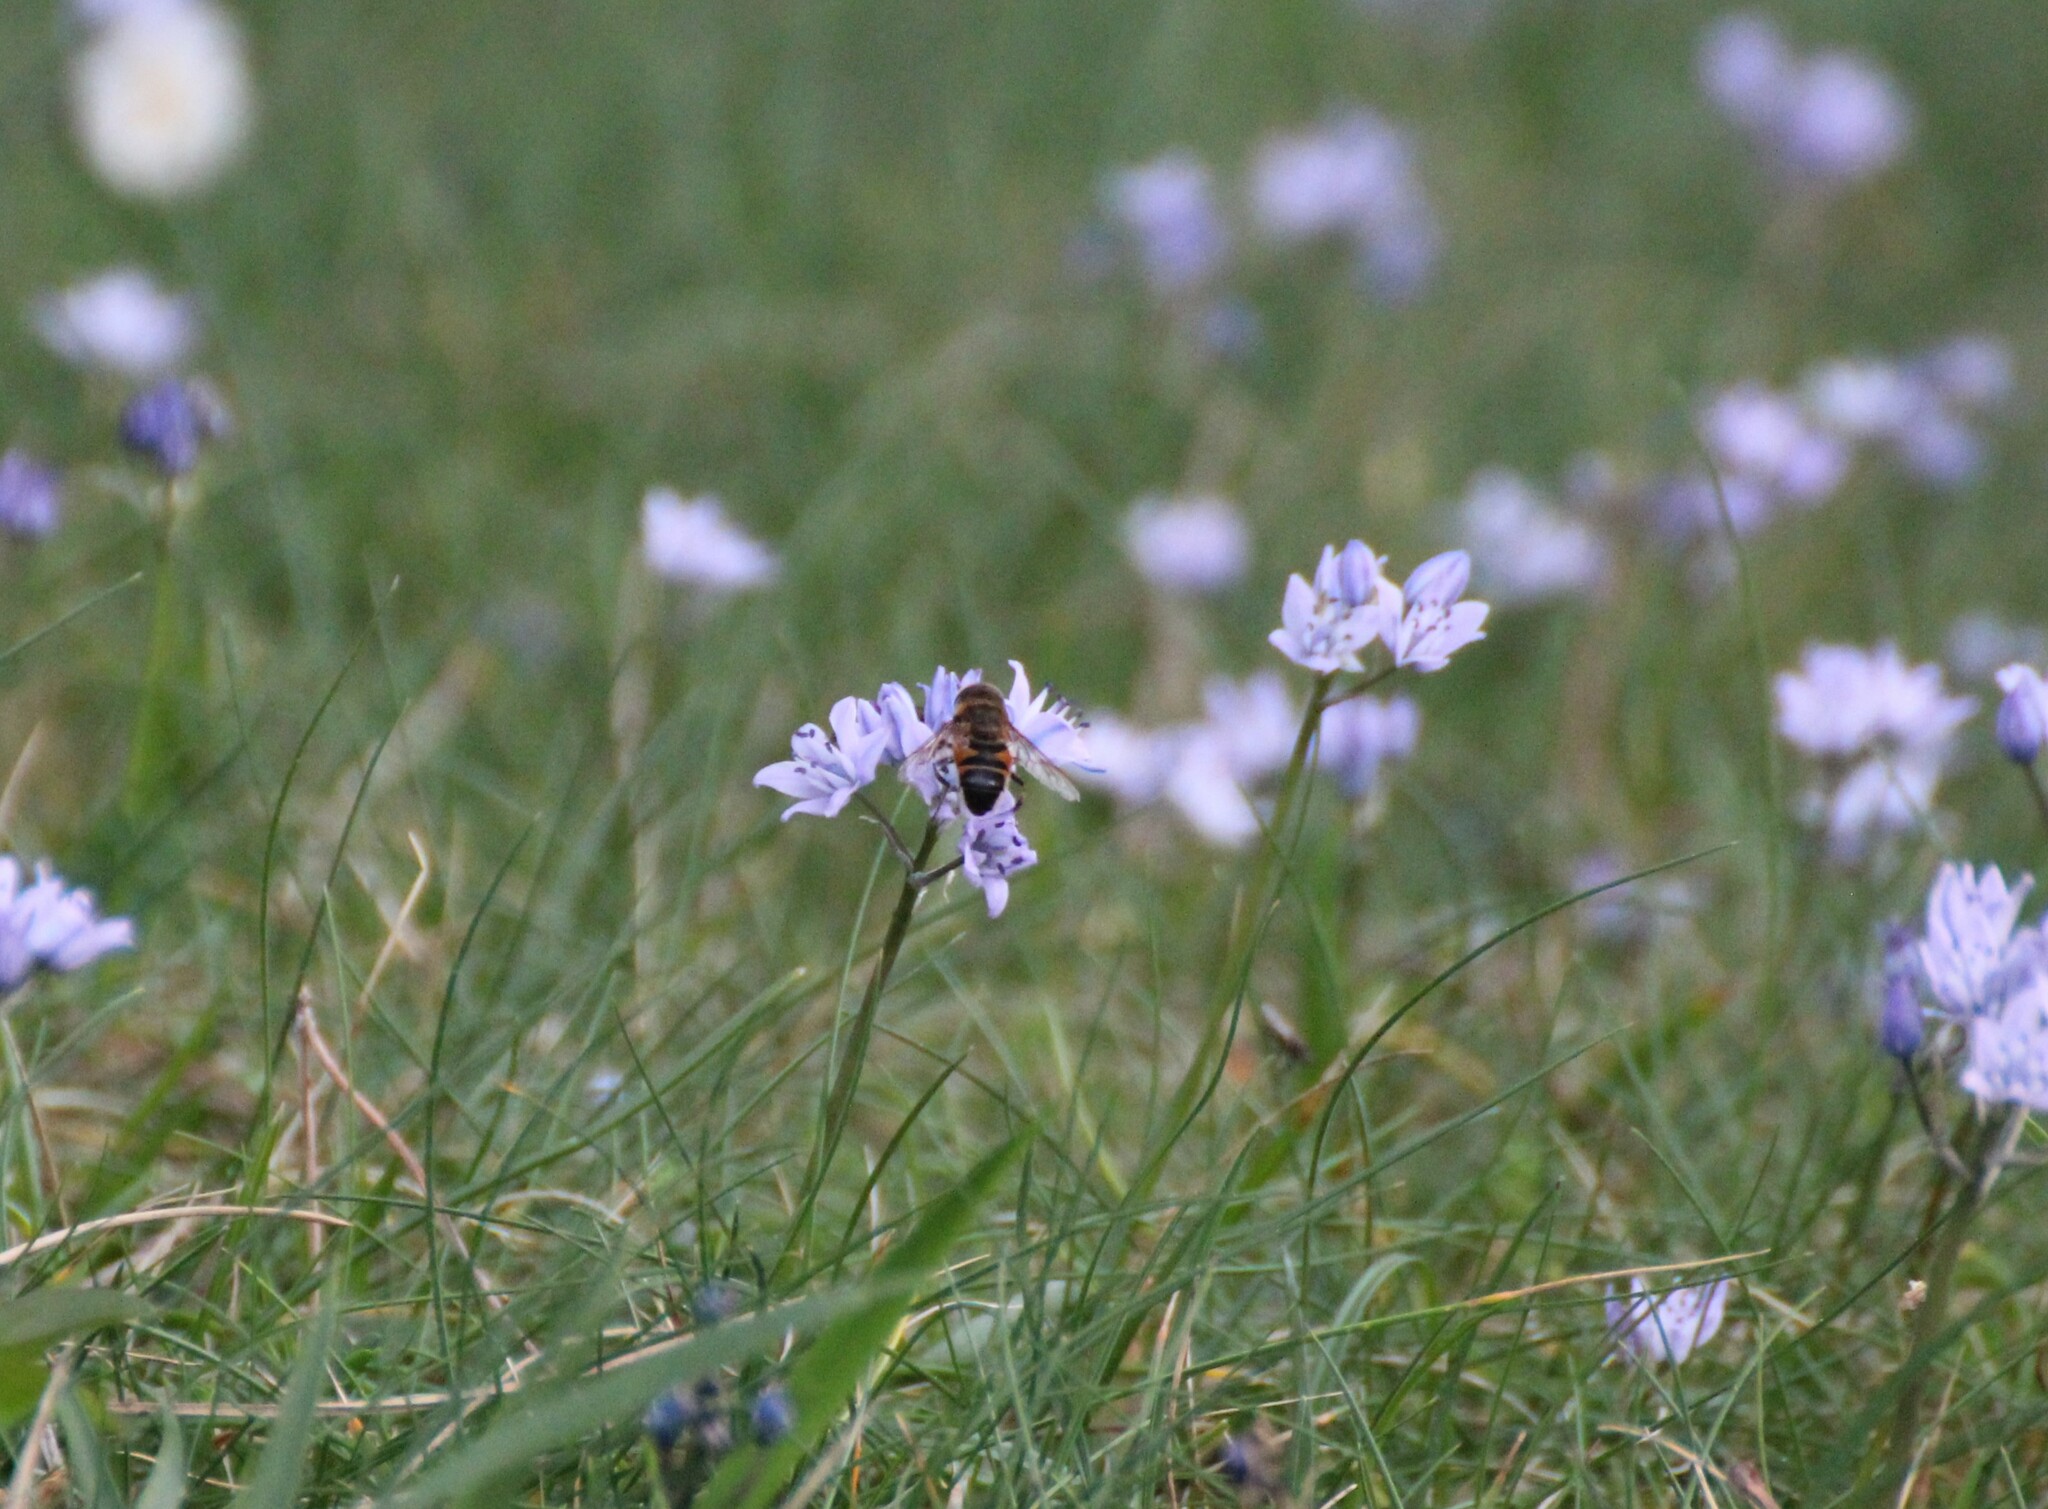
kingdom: Animalia
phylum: Arthropoda
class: Insecta
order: Diptera
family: Syrphidae
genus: Eristalis
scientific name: Eristalis pertinax
